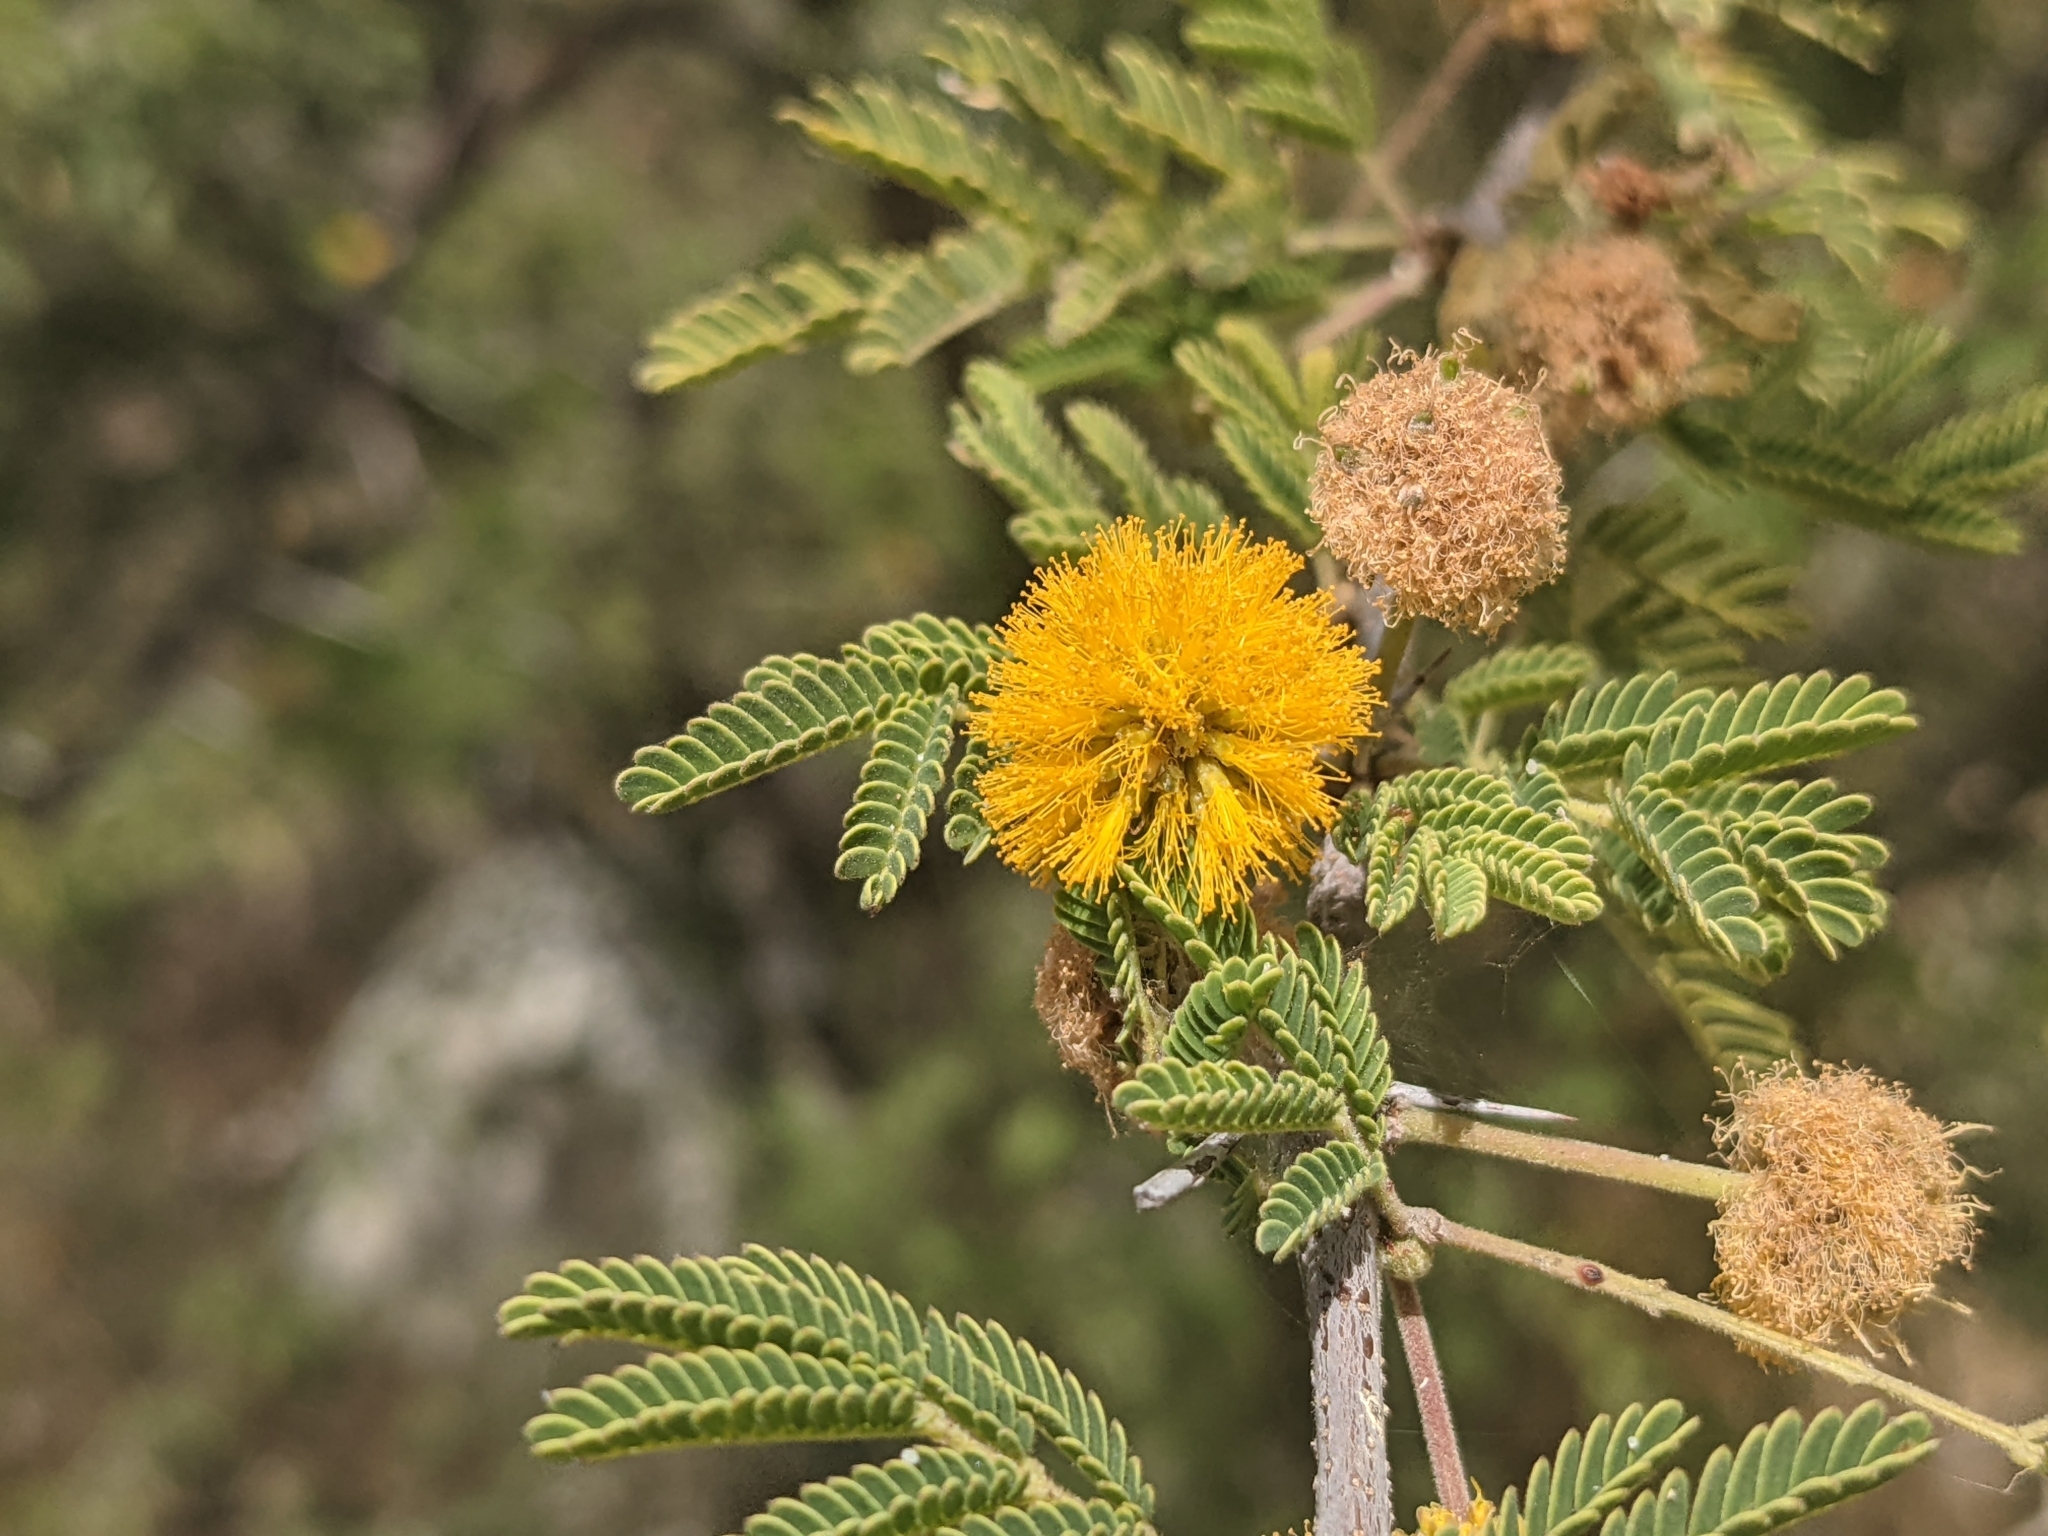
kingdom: Plantae
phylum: Tracheophyta
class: Magnoliopsida
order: Fabales
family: Fabaceae
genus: Vachellia
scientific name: Vachellia farnesiana
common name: Sweet acacia
